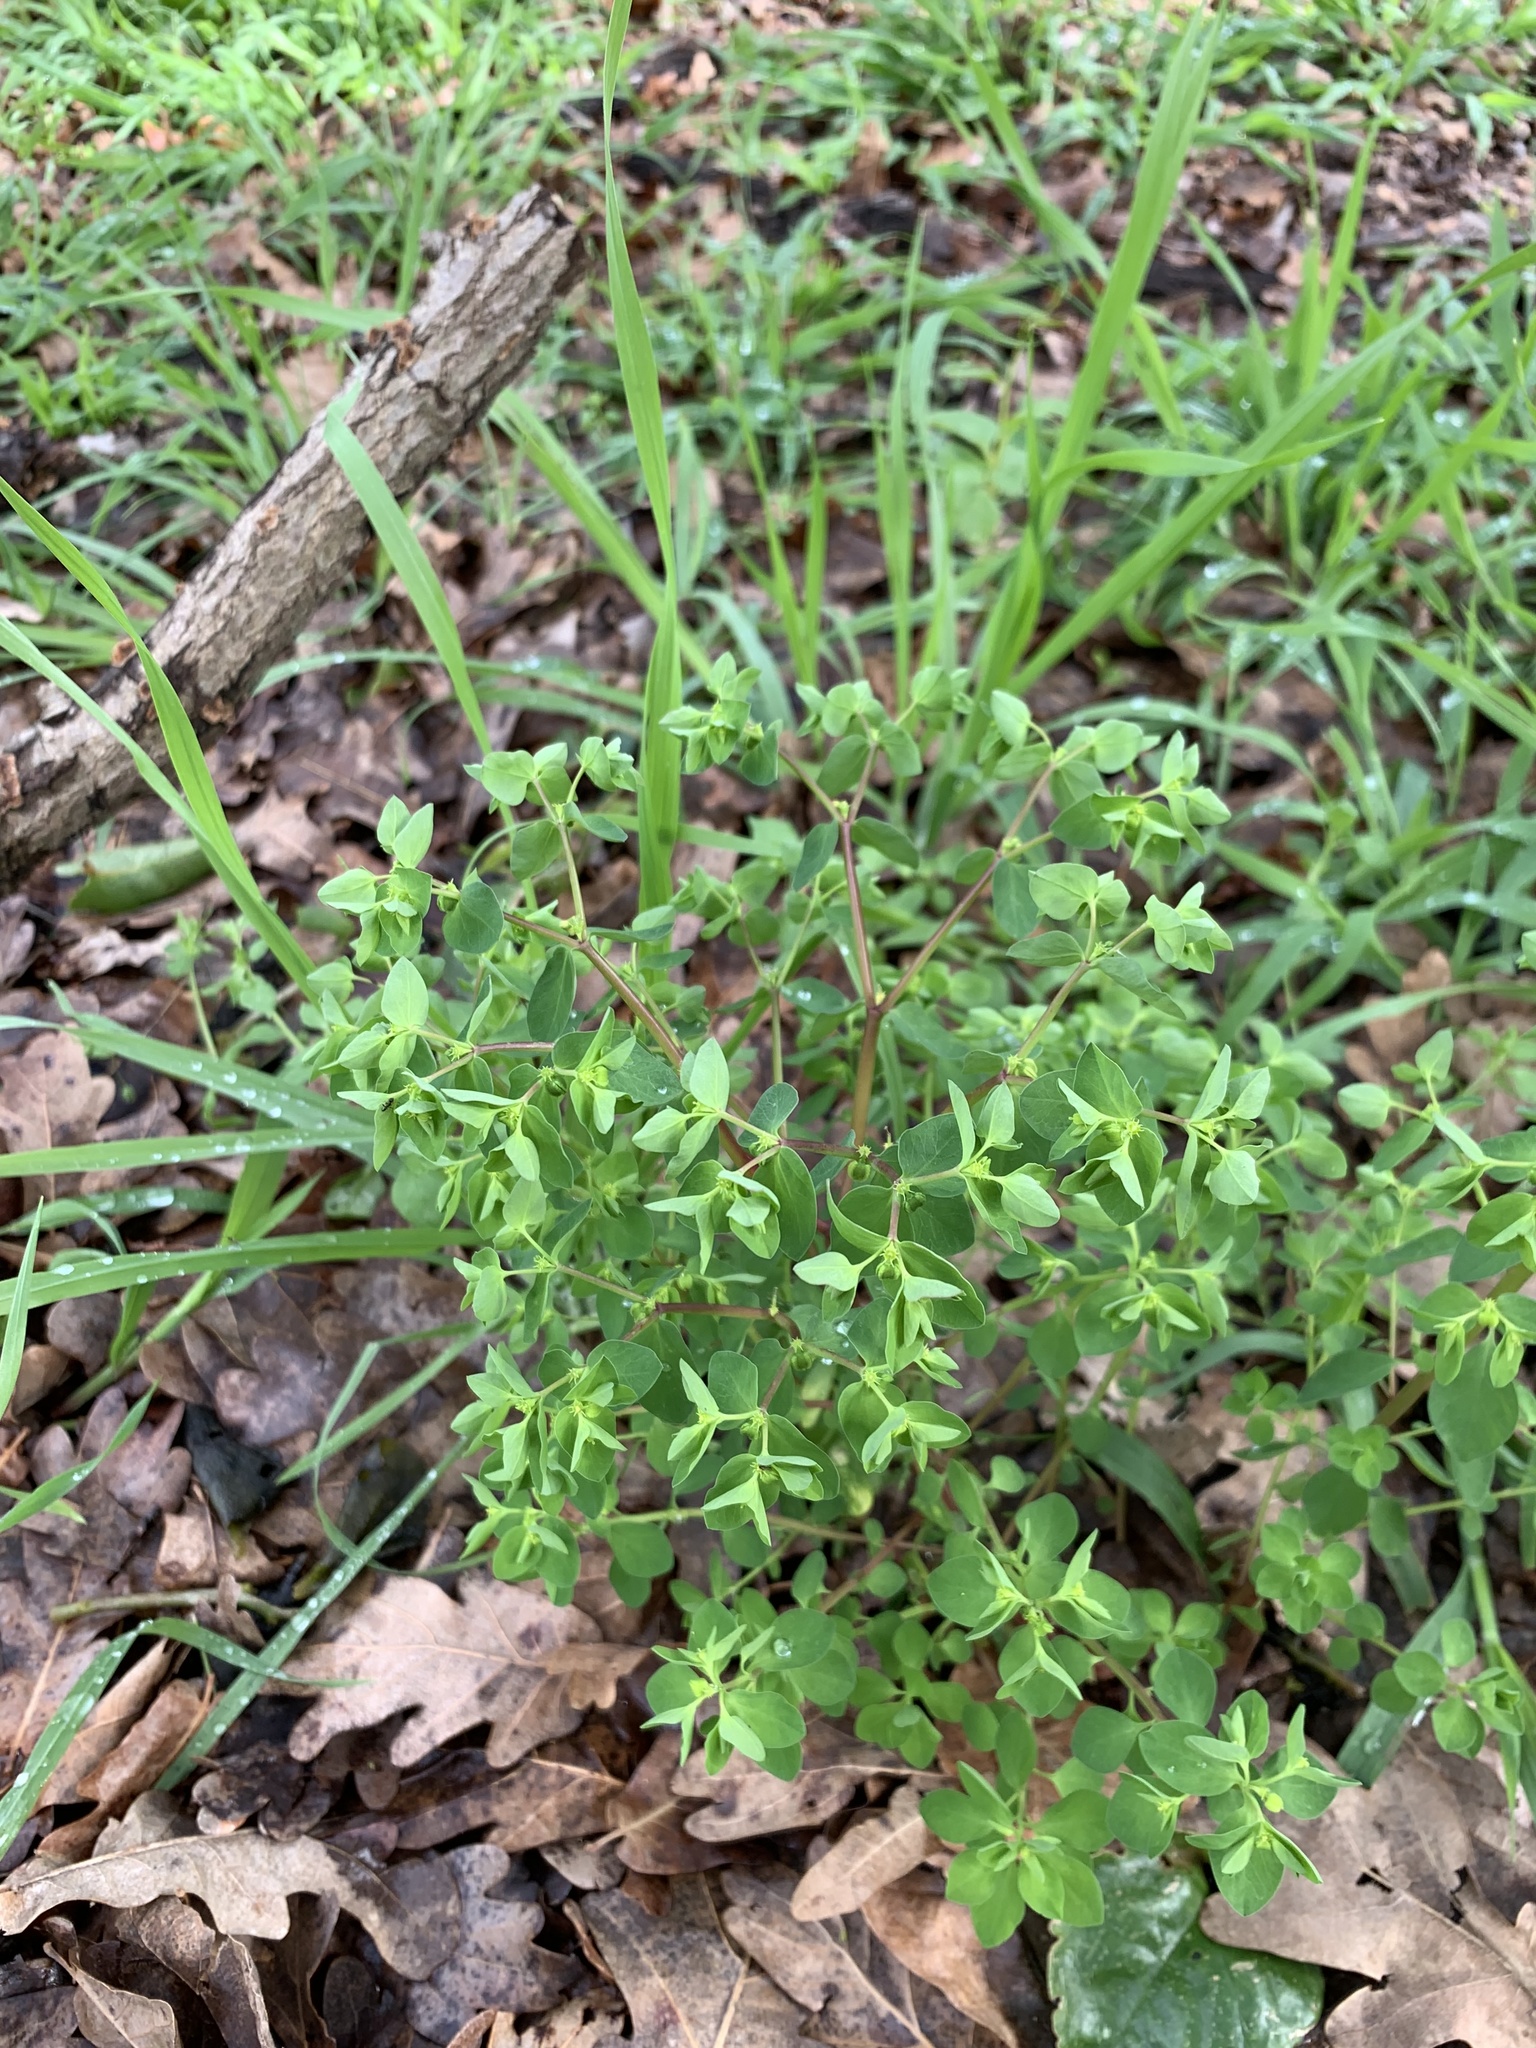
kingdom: Plantae
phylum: Tracheophyta
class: Magnoliopsida
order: Malpighiales
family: Euphorbiaceae
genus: Euphorbia
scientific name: Euphorbia peplus
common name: Petty spurge
